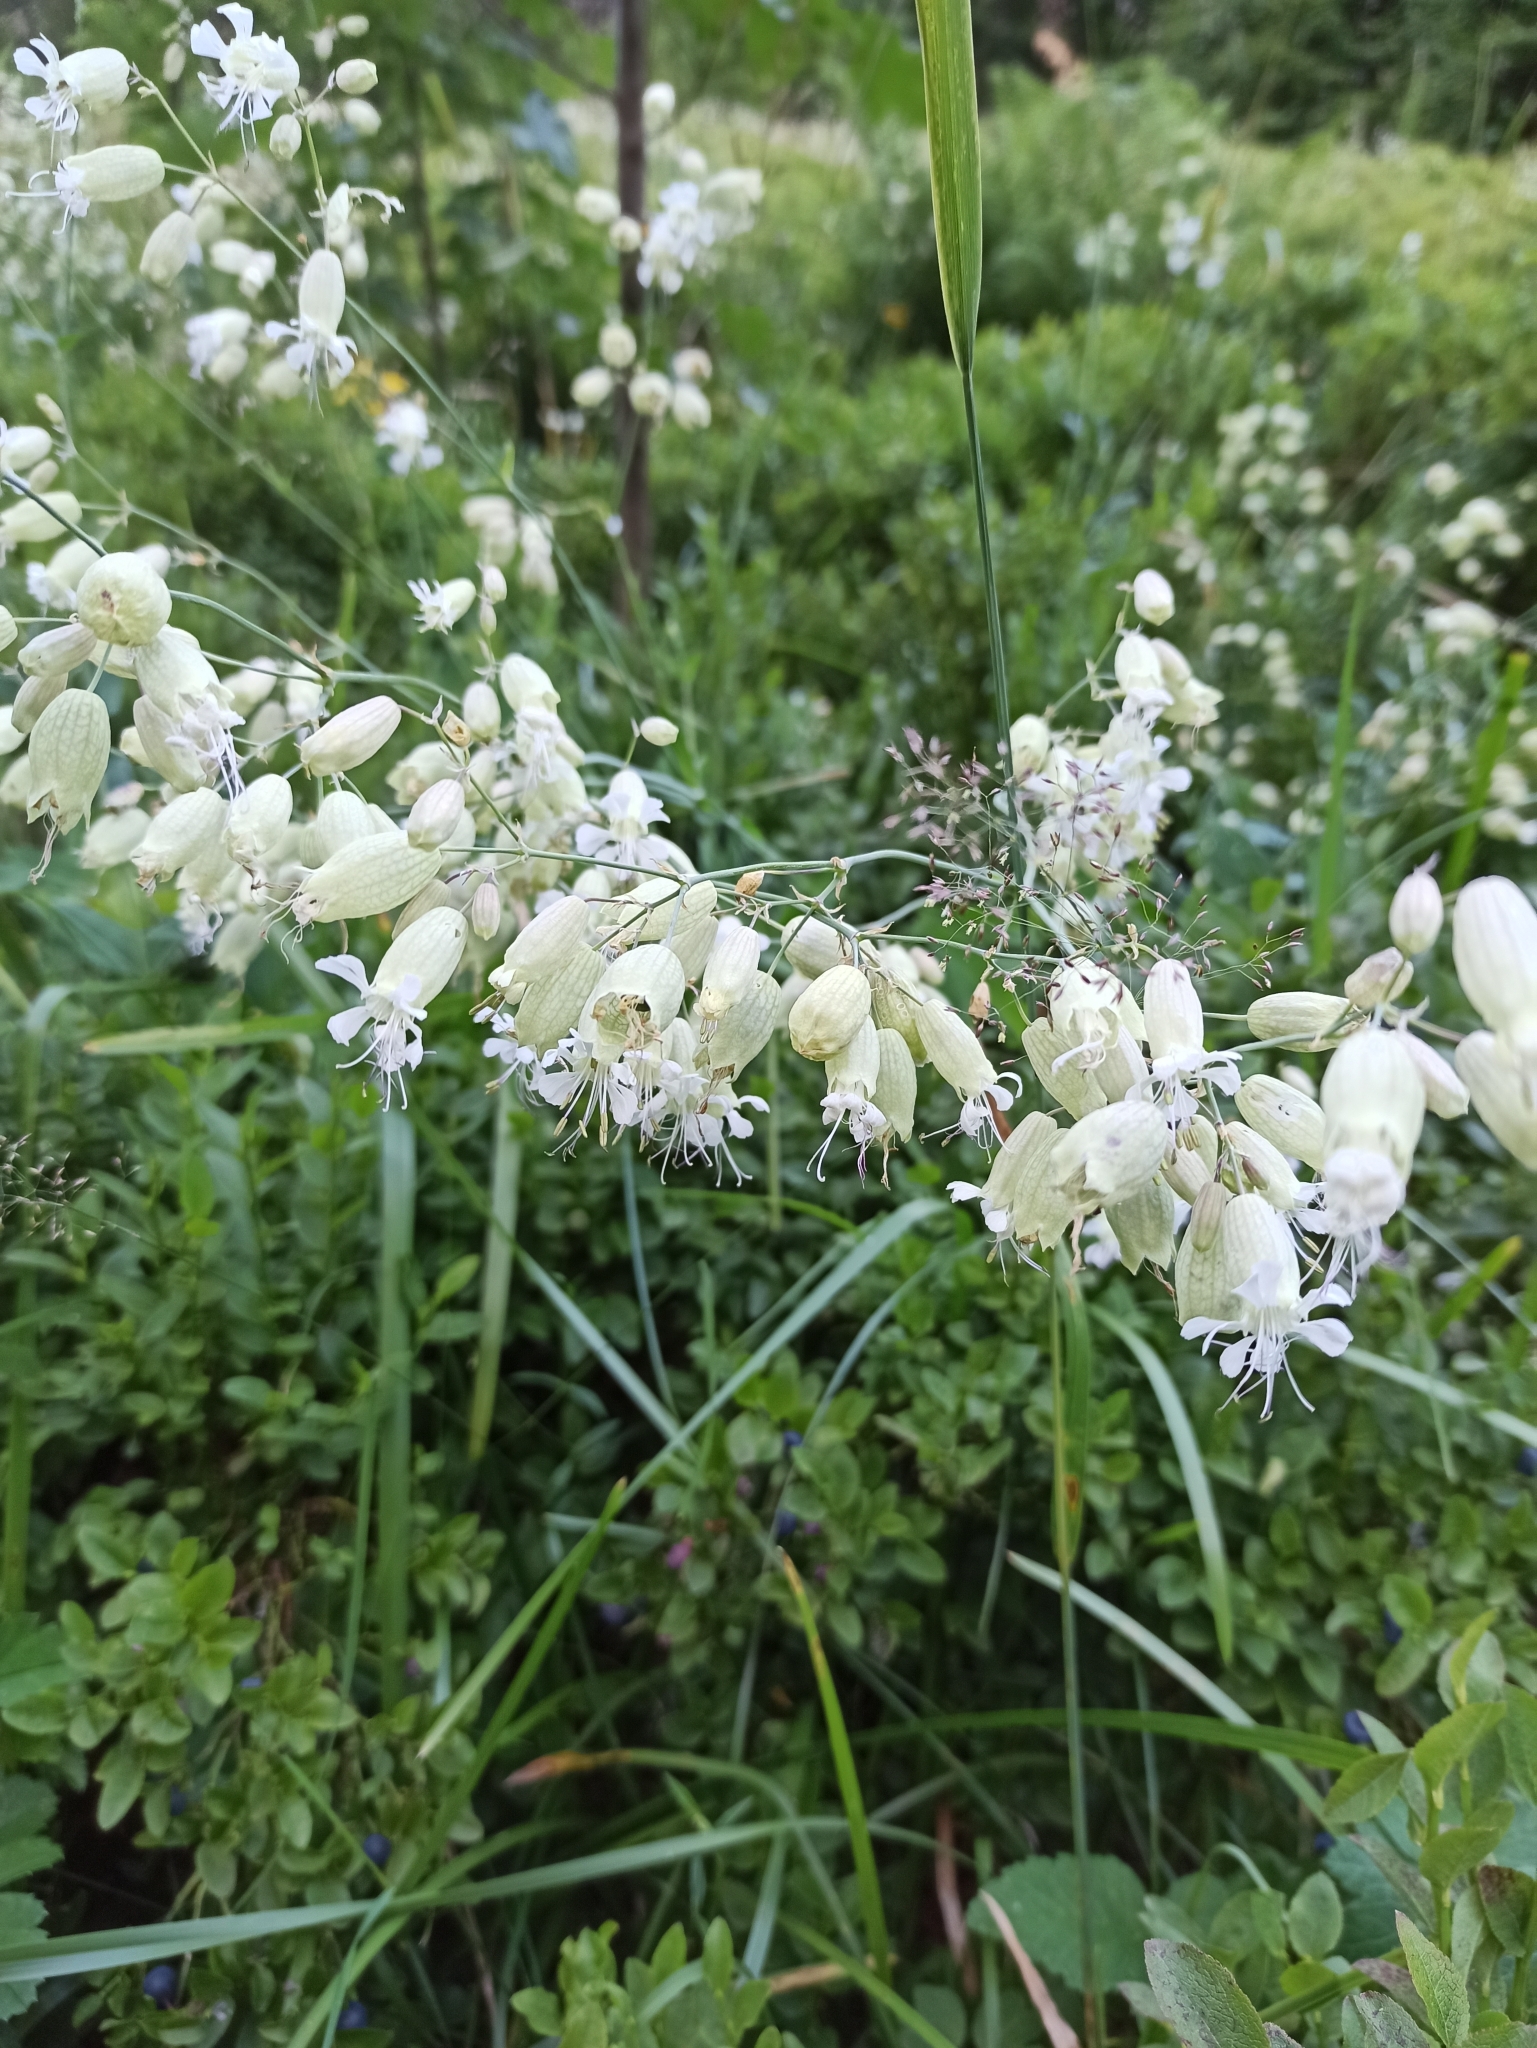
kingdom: Plantae
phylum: Tracheophyta
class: Magnoliopsida
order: Caryophyllales
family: Caryophyllaceae
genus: Silene
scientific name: Silene vulgaris
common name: Bladder campion
